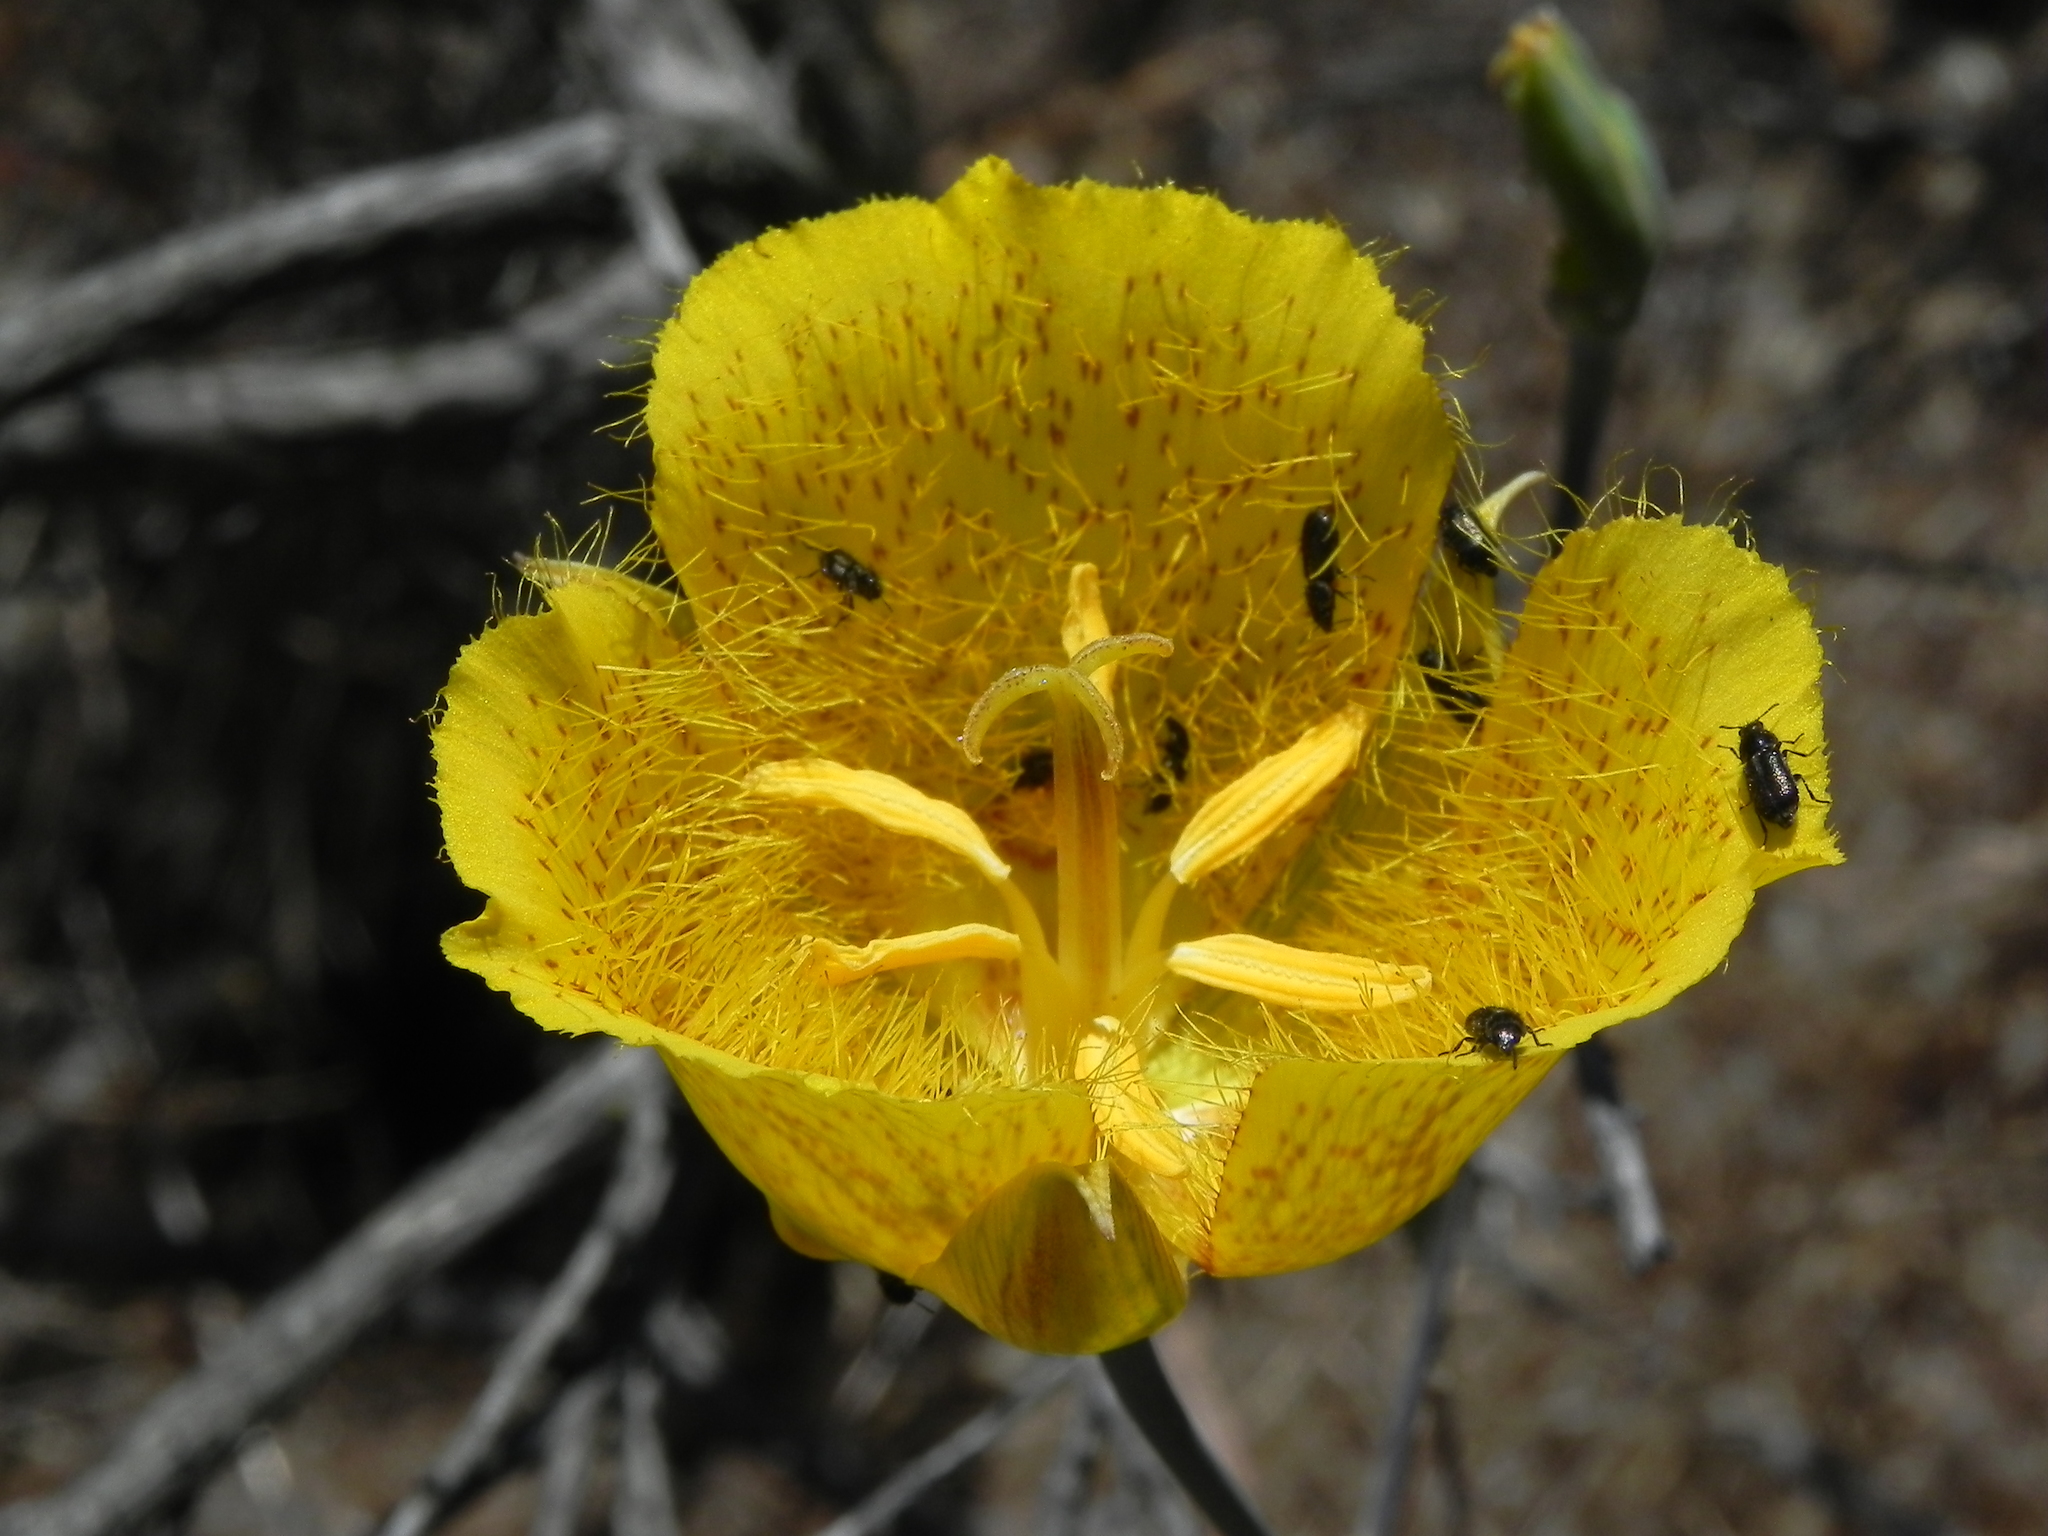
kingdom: Plantae
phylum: Tracheophyta
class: Liliopsida
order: Liliales
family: Liliaceae
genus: Calochortus
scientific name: Calochortus weedii
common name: Weed's mariposa-lily
